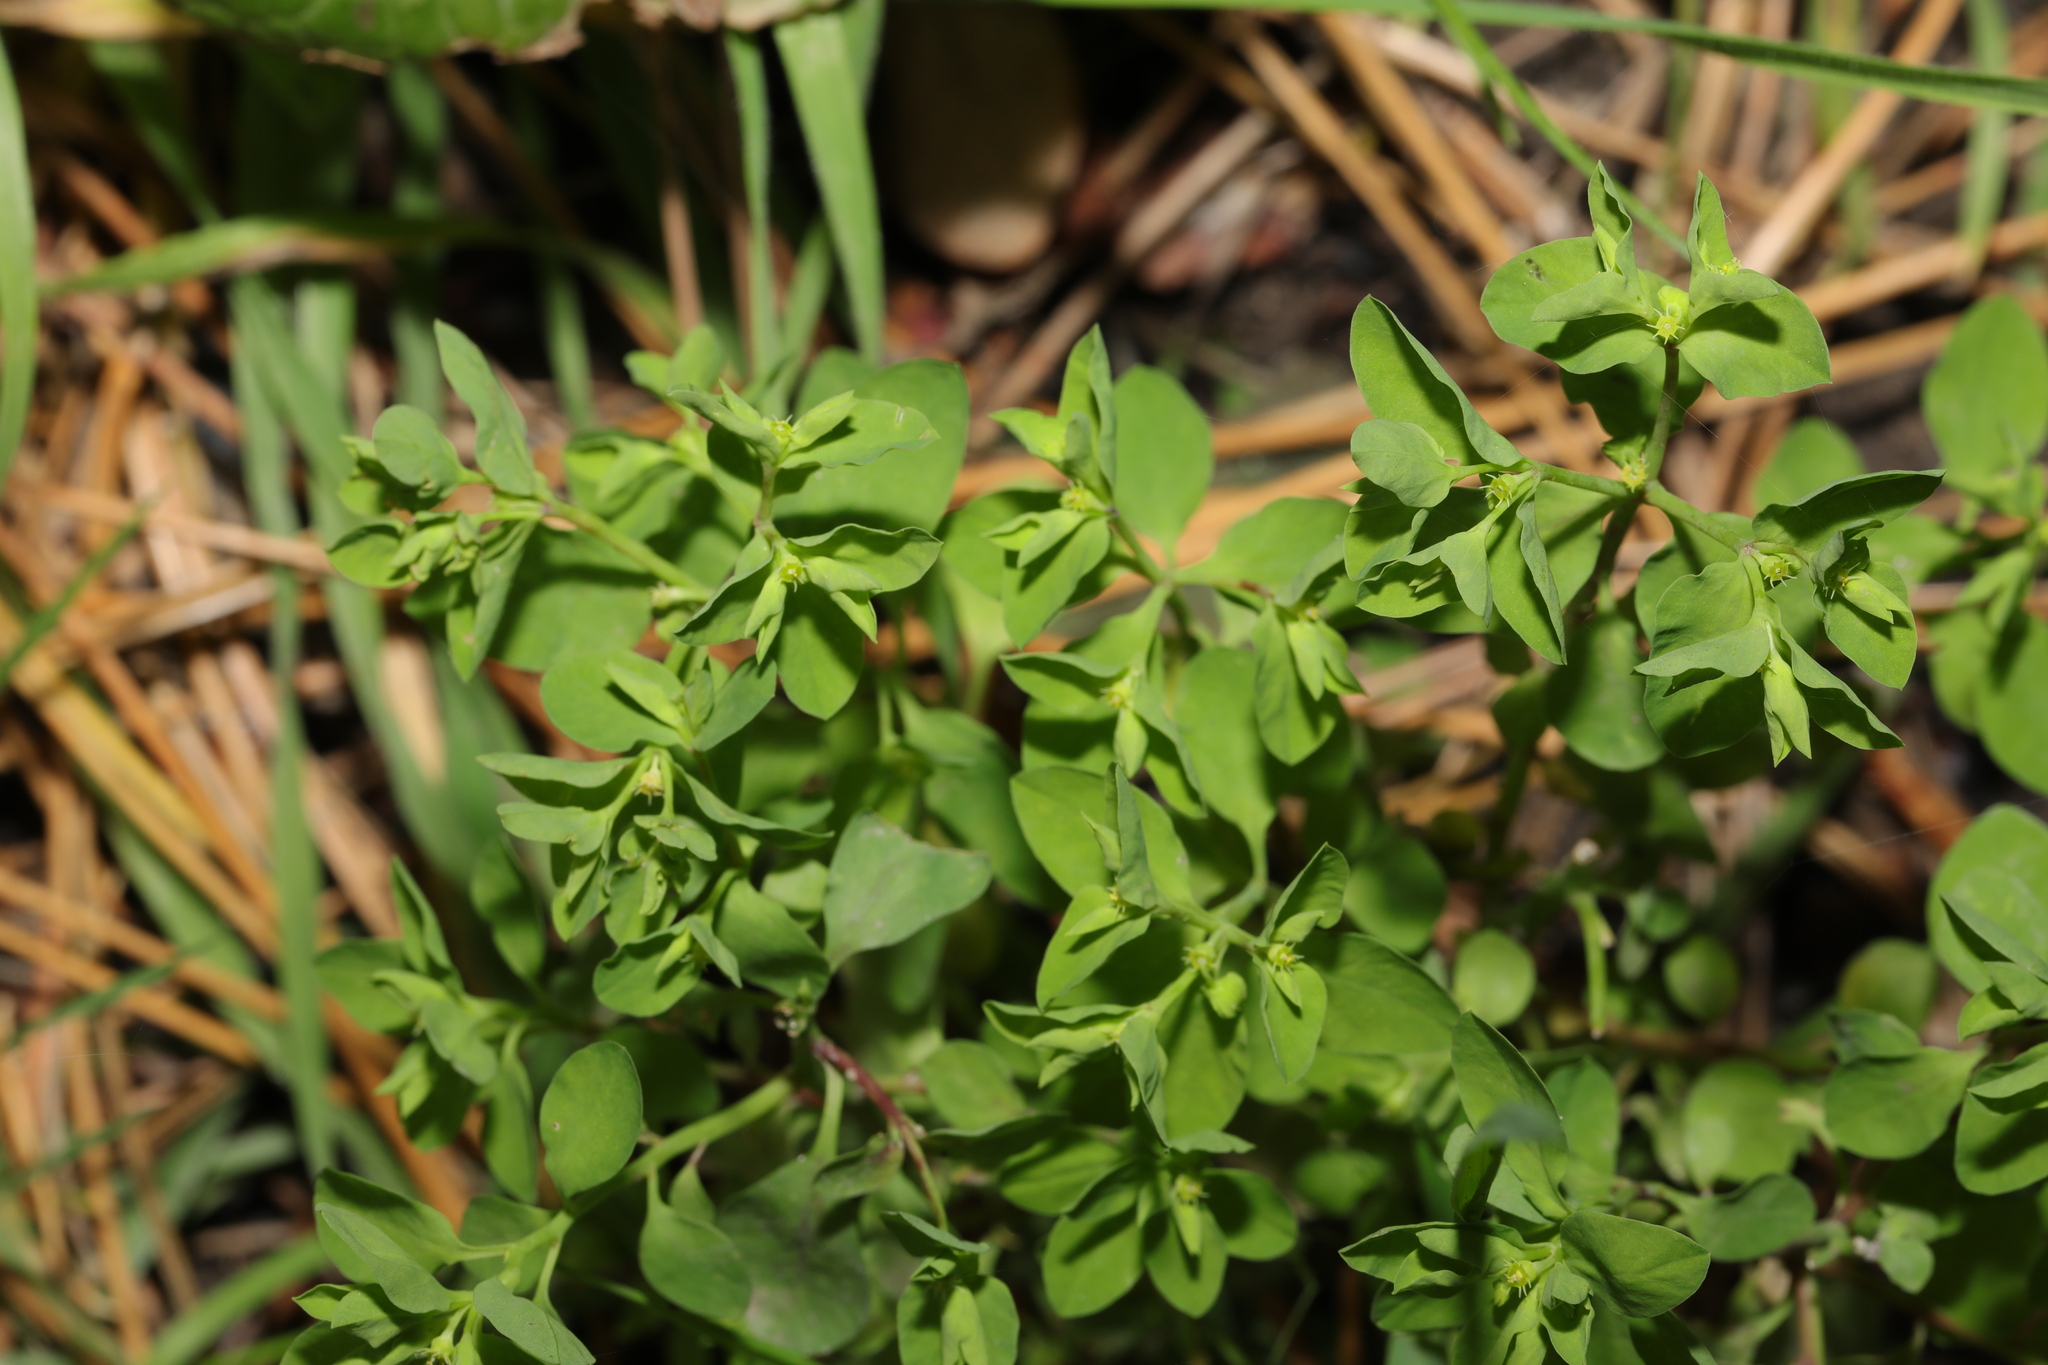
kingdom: Plantae
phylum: Tracheophyta
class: Magnoliopsida
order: Malpighiales
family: Euphorbiaceae
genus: Euphorbia
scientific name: Euphorbia peplus
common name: Petty spurge
